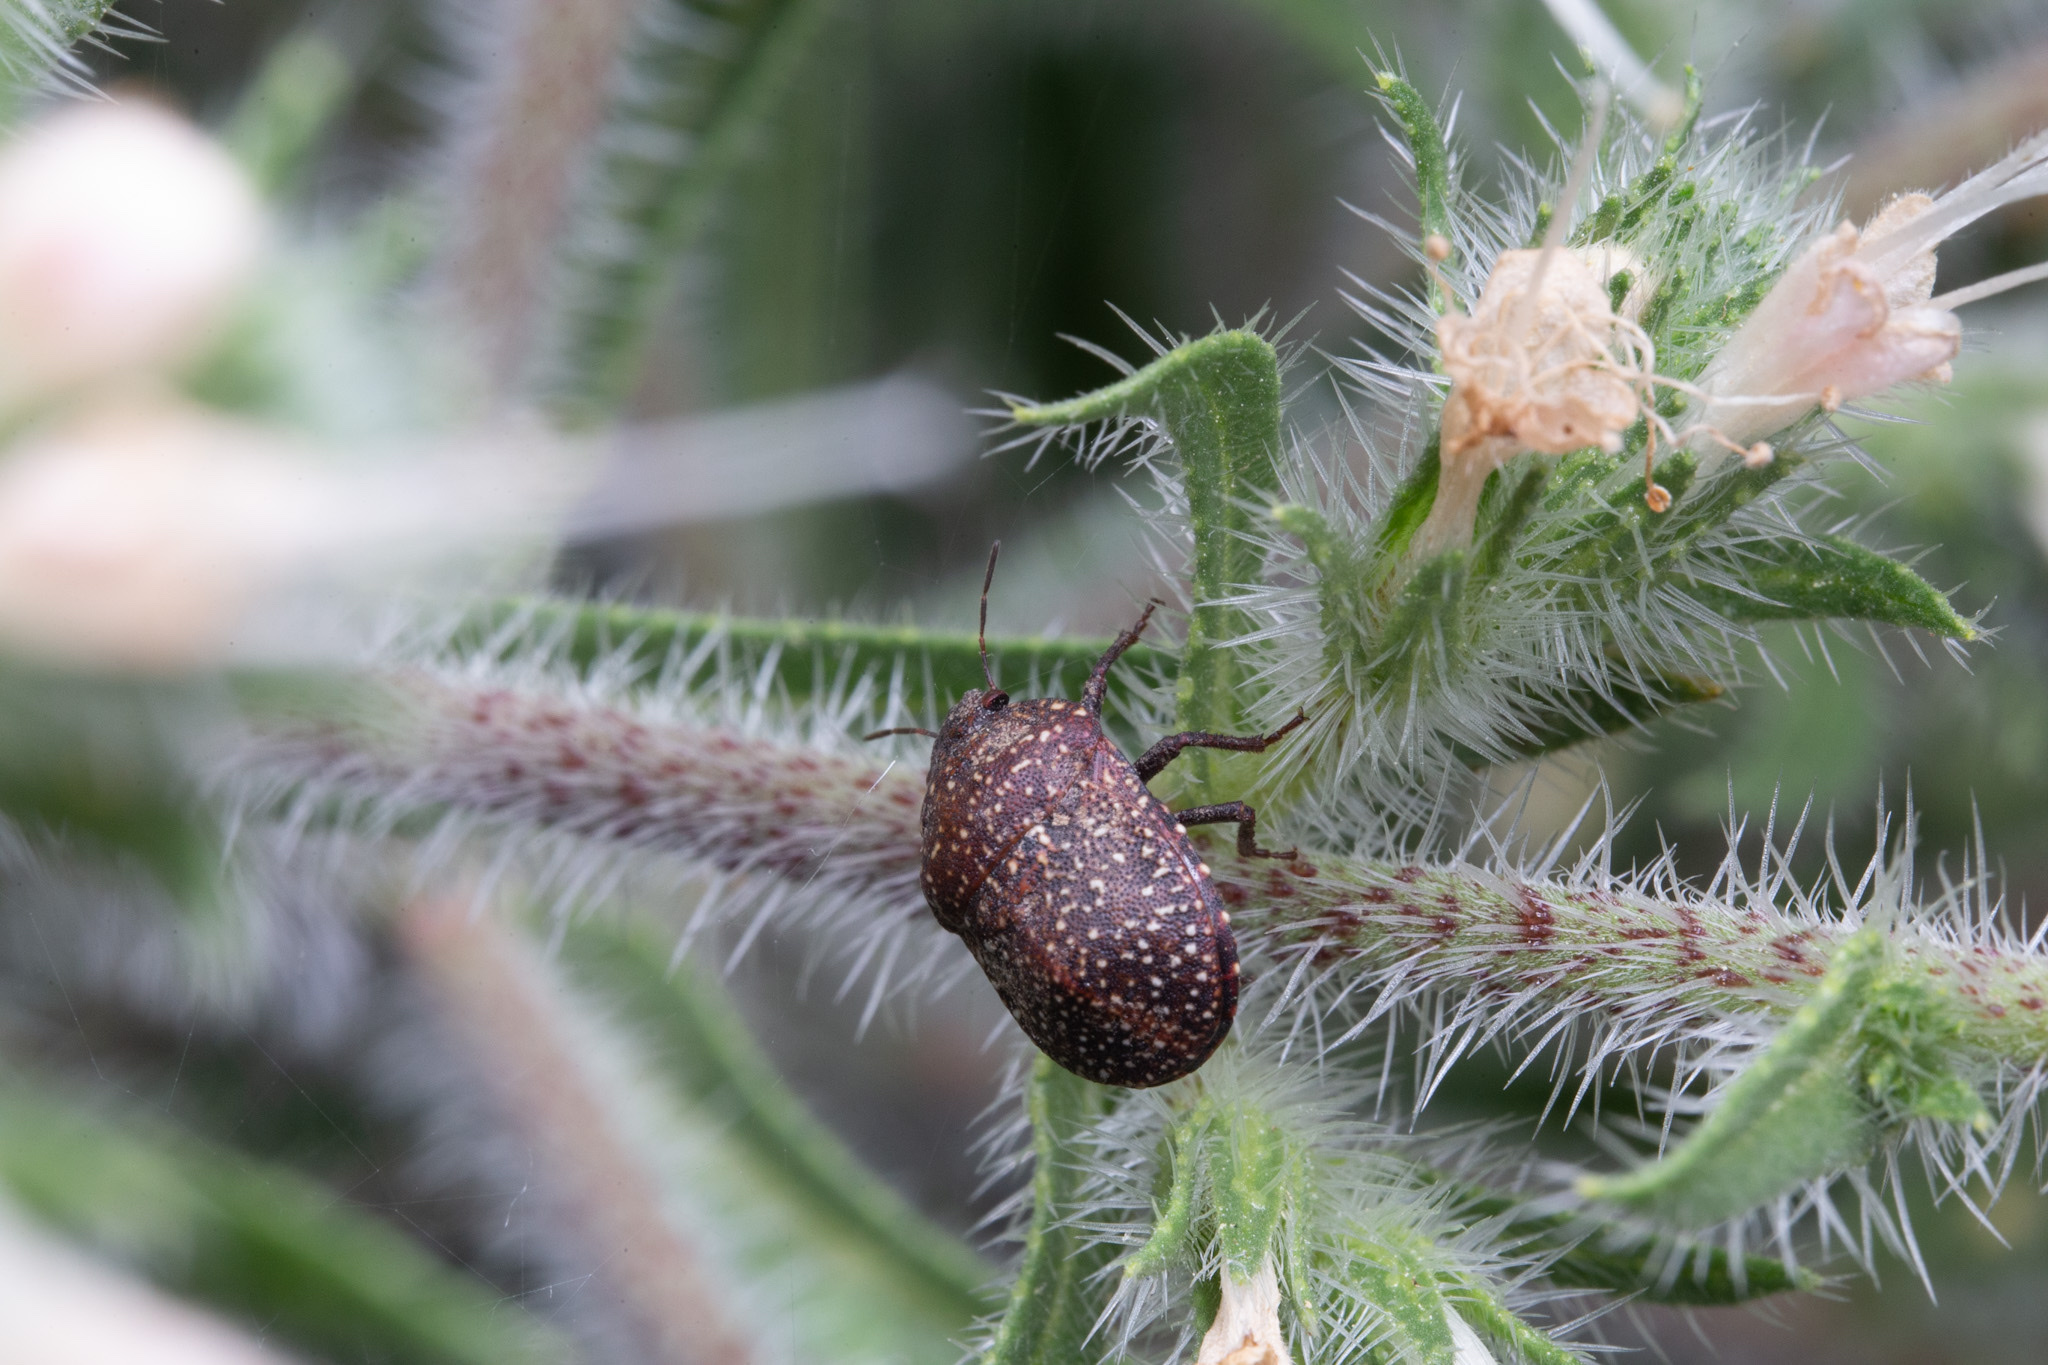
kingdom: Animalia
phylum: Arthropoda
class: Insecta
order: Hemiptera
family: Scutelleridae
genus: Psacasta
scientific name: Psacasta exanthematica
